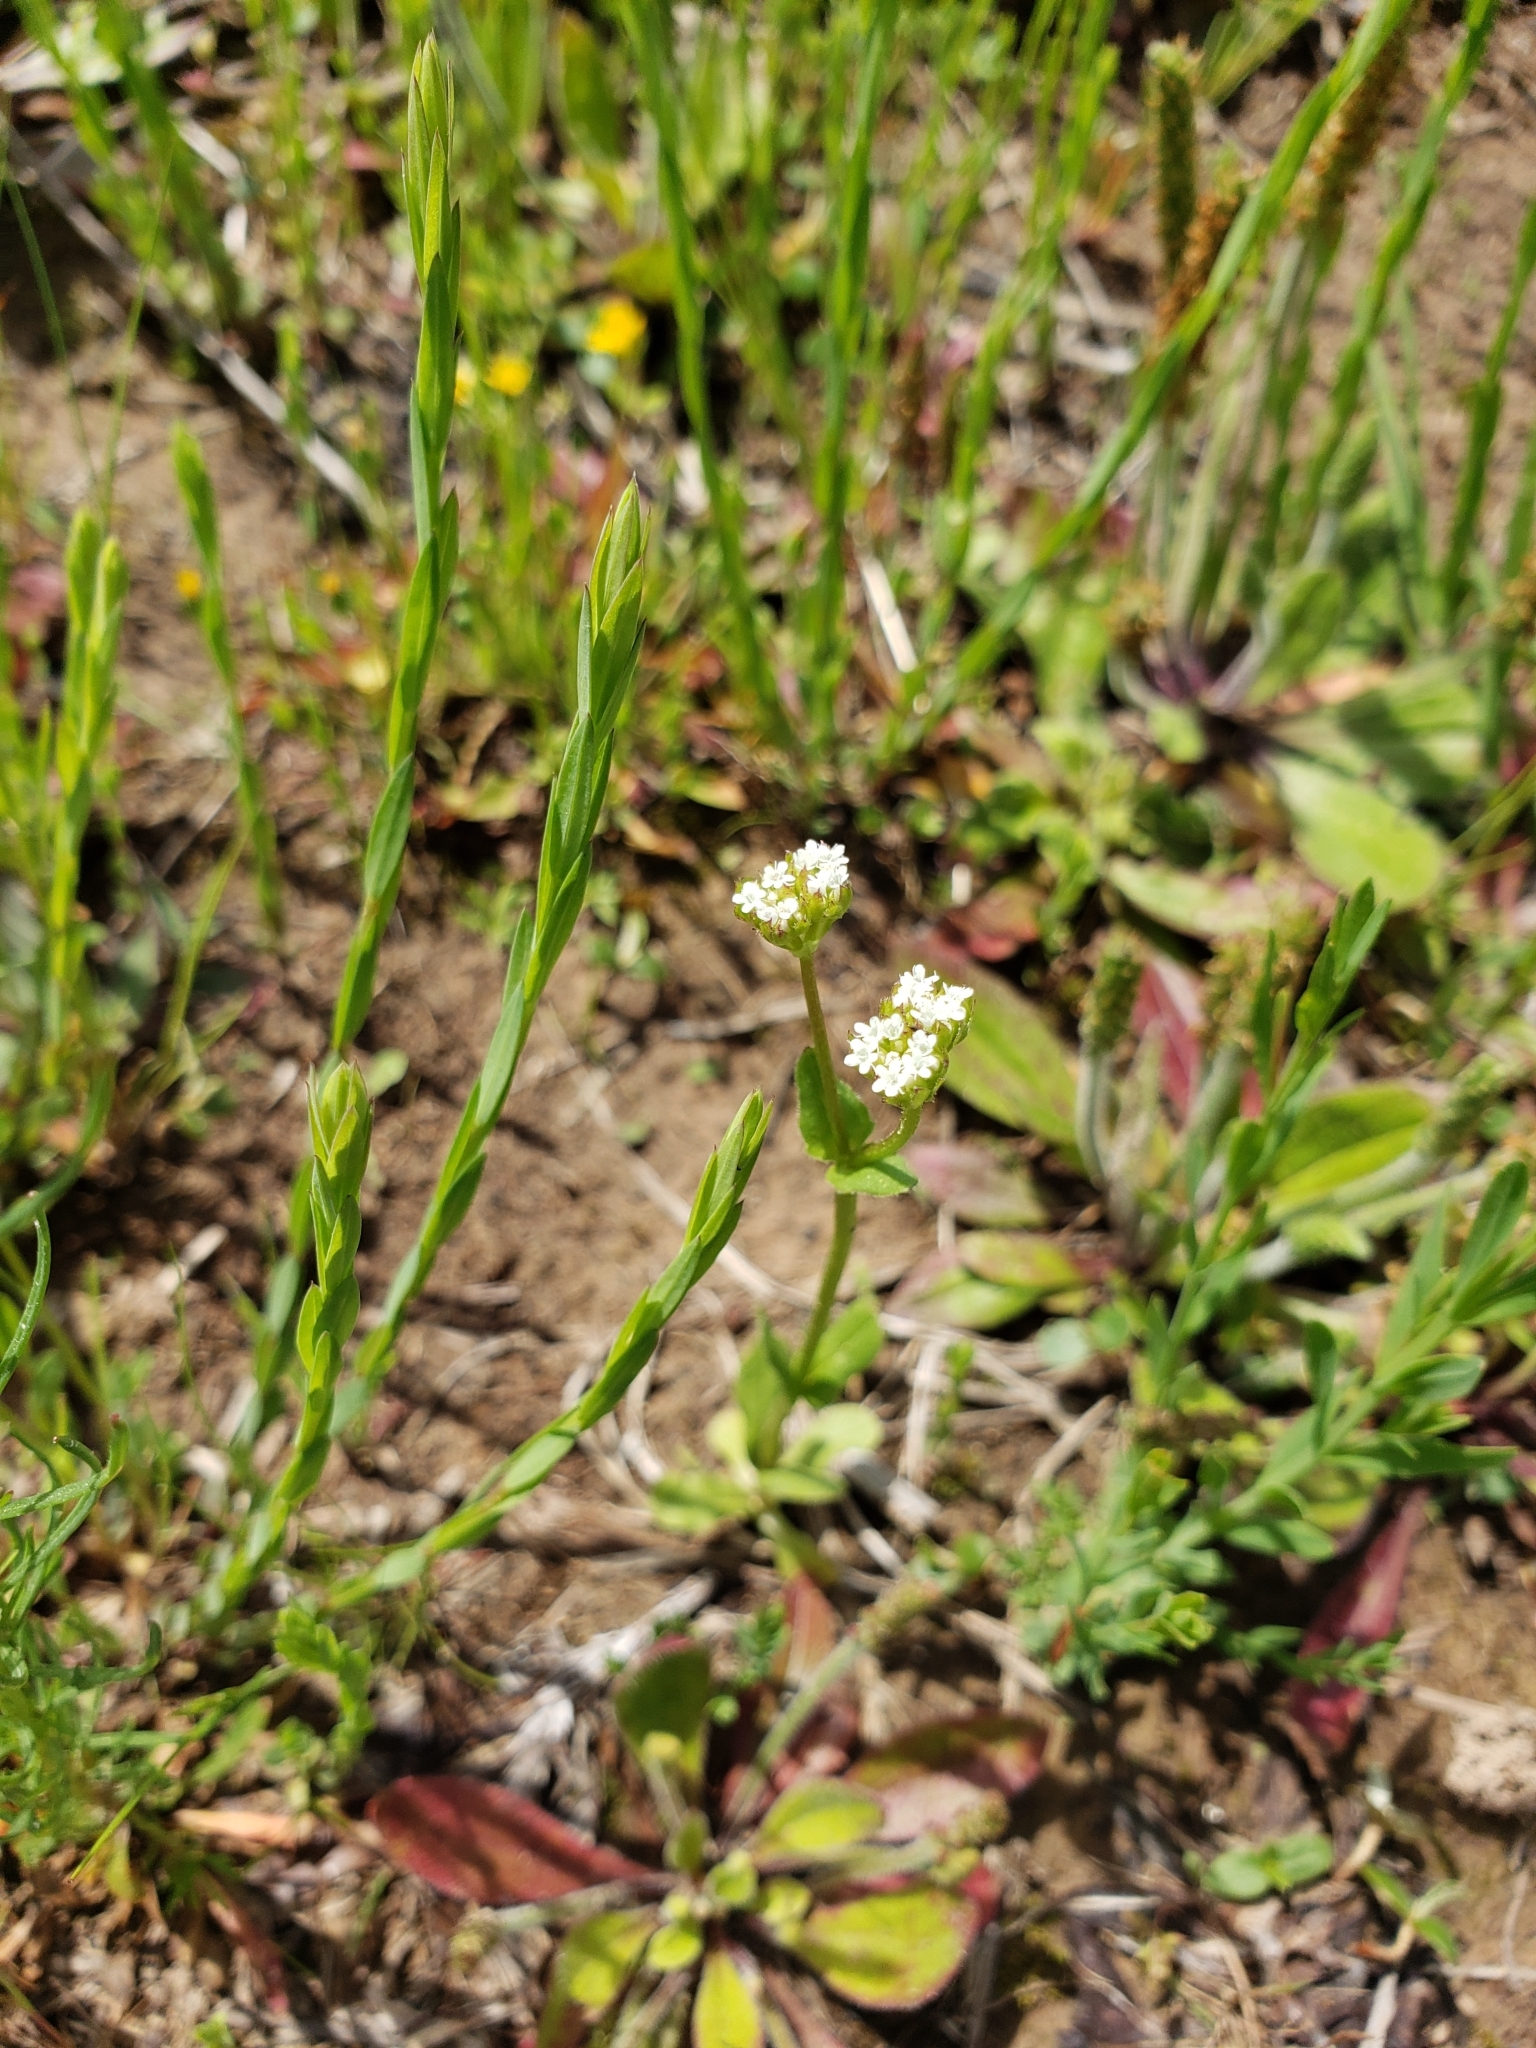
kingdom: Plantae
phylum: Tracheophyta
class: Magnoliopsida
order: Dipsacales
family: Caprifoliaceae
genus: Valerianella
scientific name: Valerianella radiata
